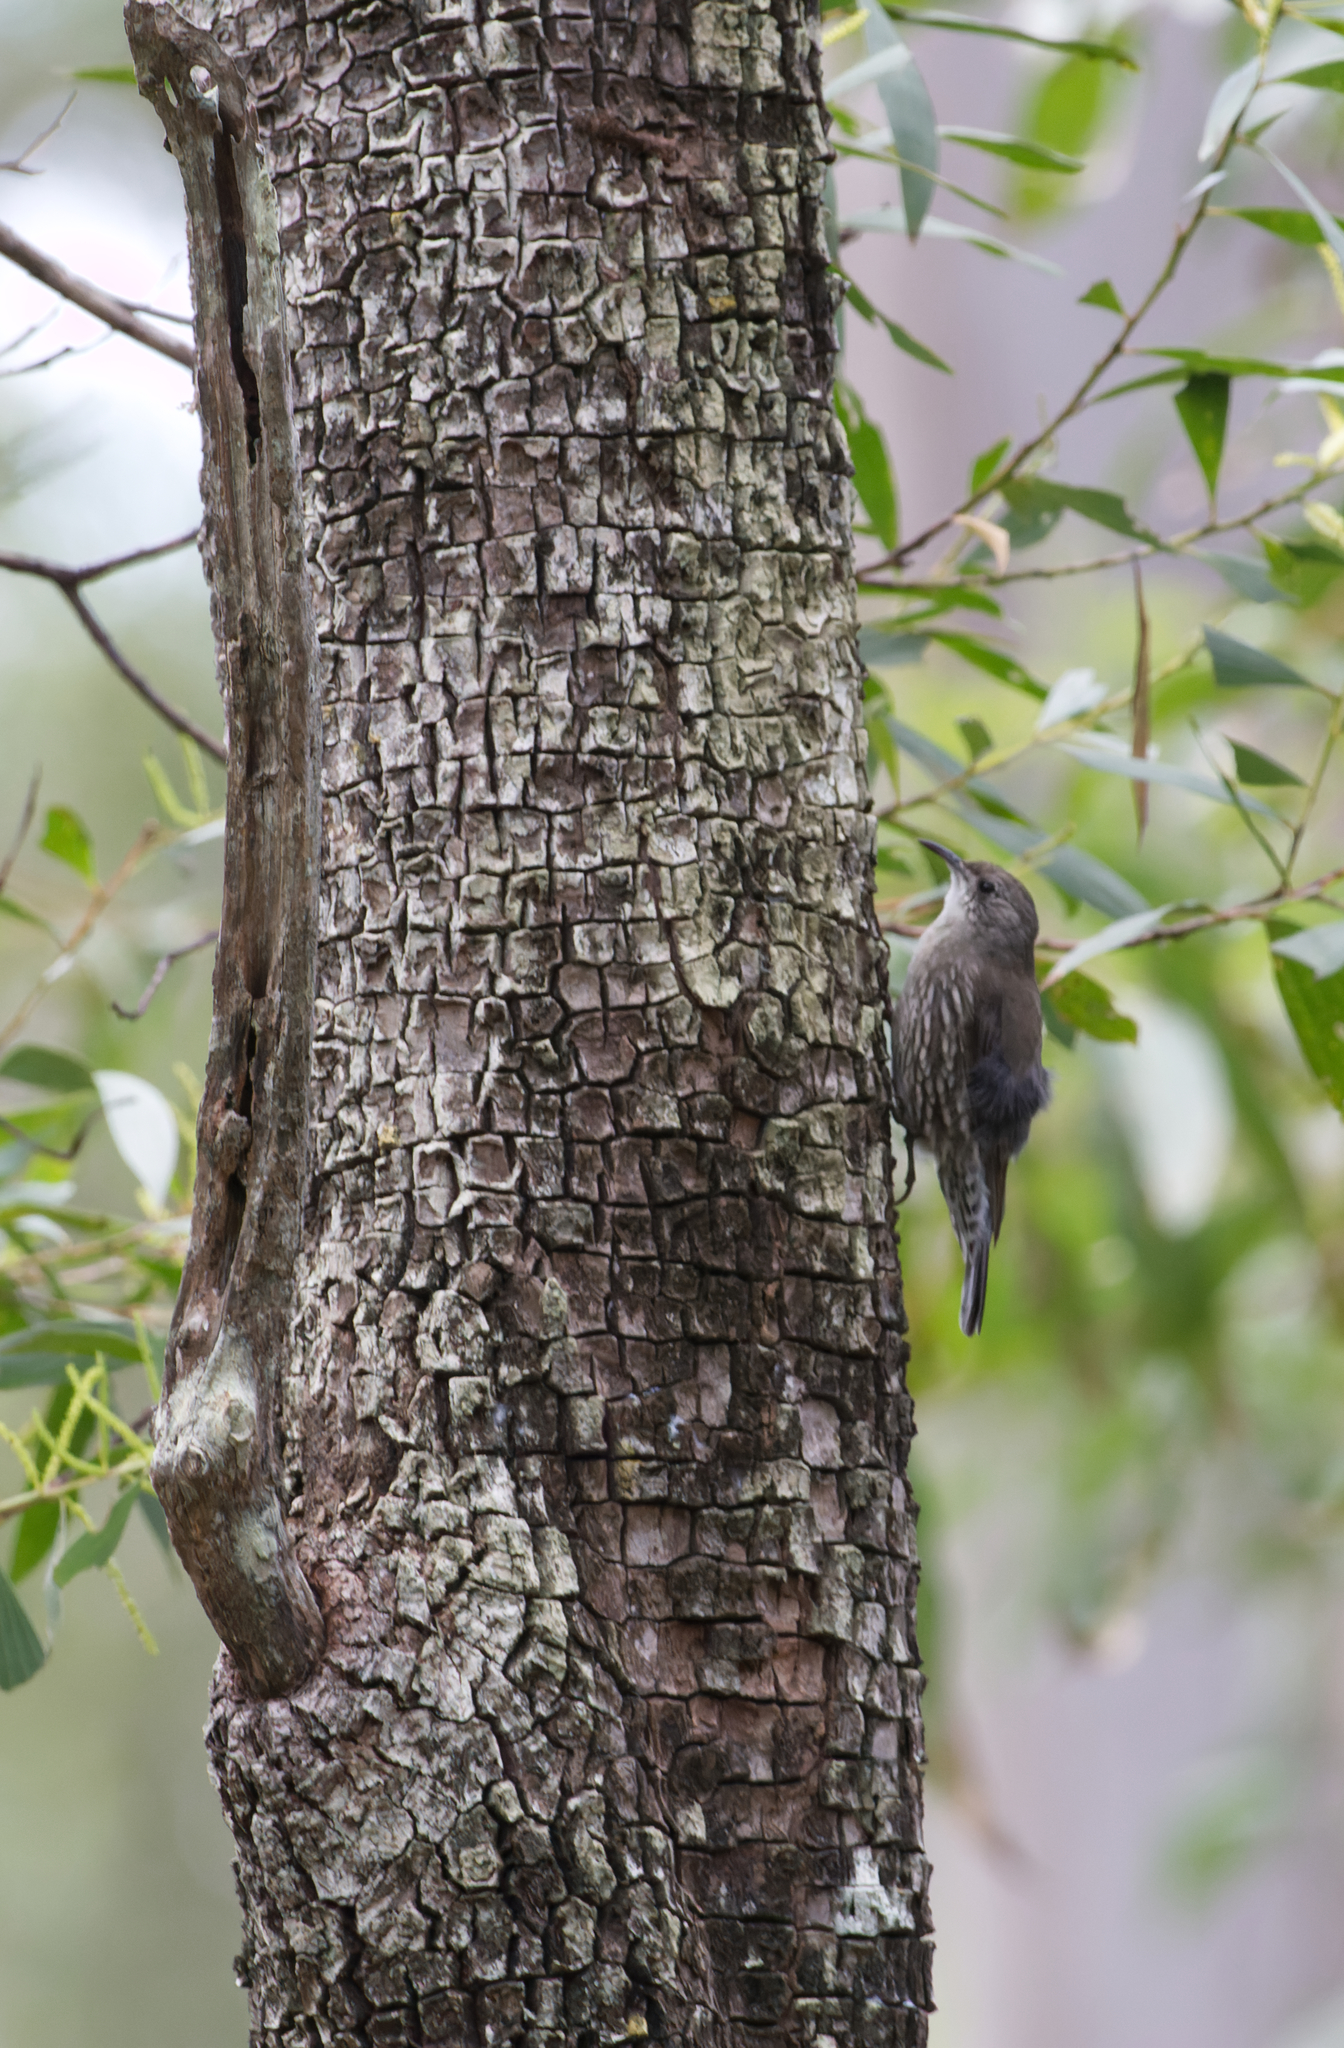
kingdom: Animalia
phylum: Chordata
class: Aves
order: Passeriformes
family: Climacteridae
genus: Cormobates
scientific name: Cormobates leucophaea
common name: White-throated treecreeper
